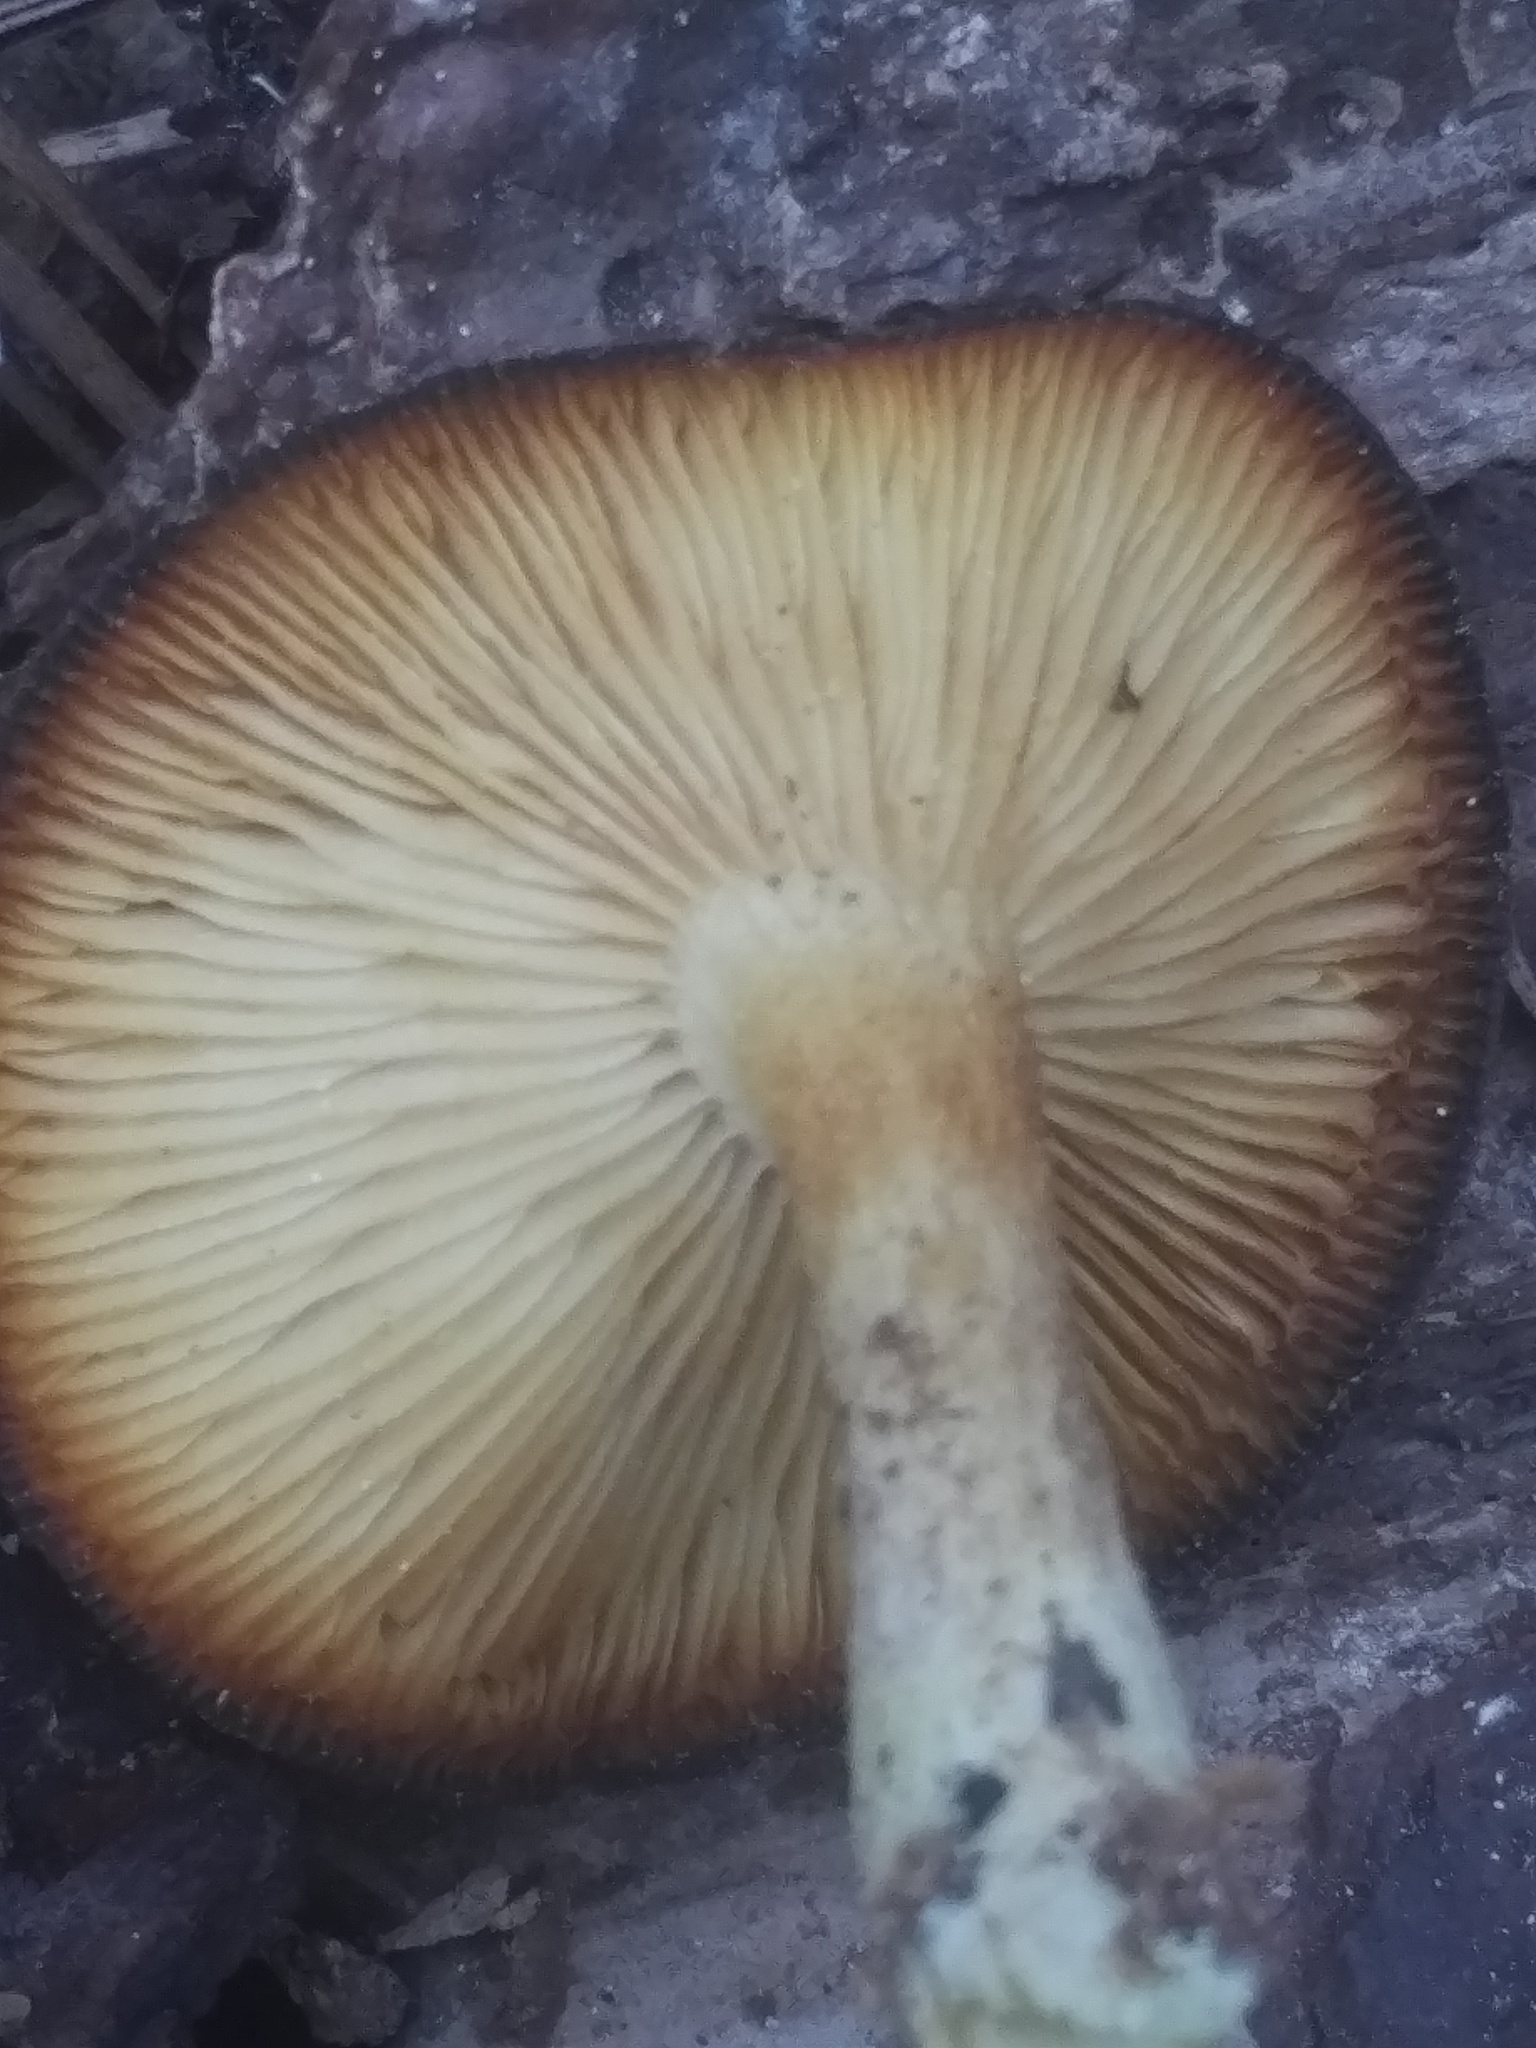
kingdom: Fungi
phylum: Basidiomycota
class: Agaricomycetes
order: Agaricales
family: Tricholomataceae
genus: Tricholomopsis
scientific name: Tricholomopsis formosa
